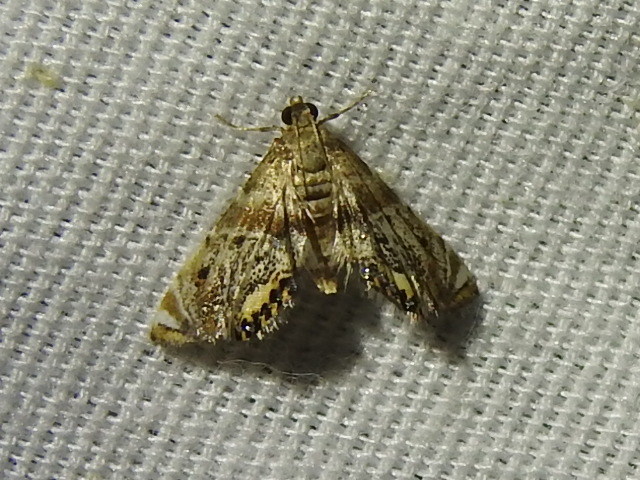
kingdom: Animalia
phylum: Arthropoda
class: Insecta
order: Lepidoptera
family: Crambidae
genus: Petrophila
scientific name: Petrophila fulicalis
